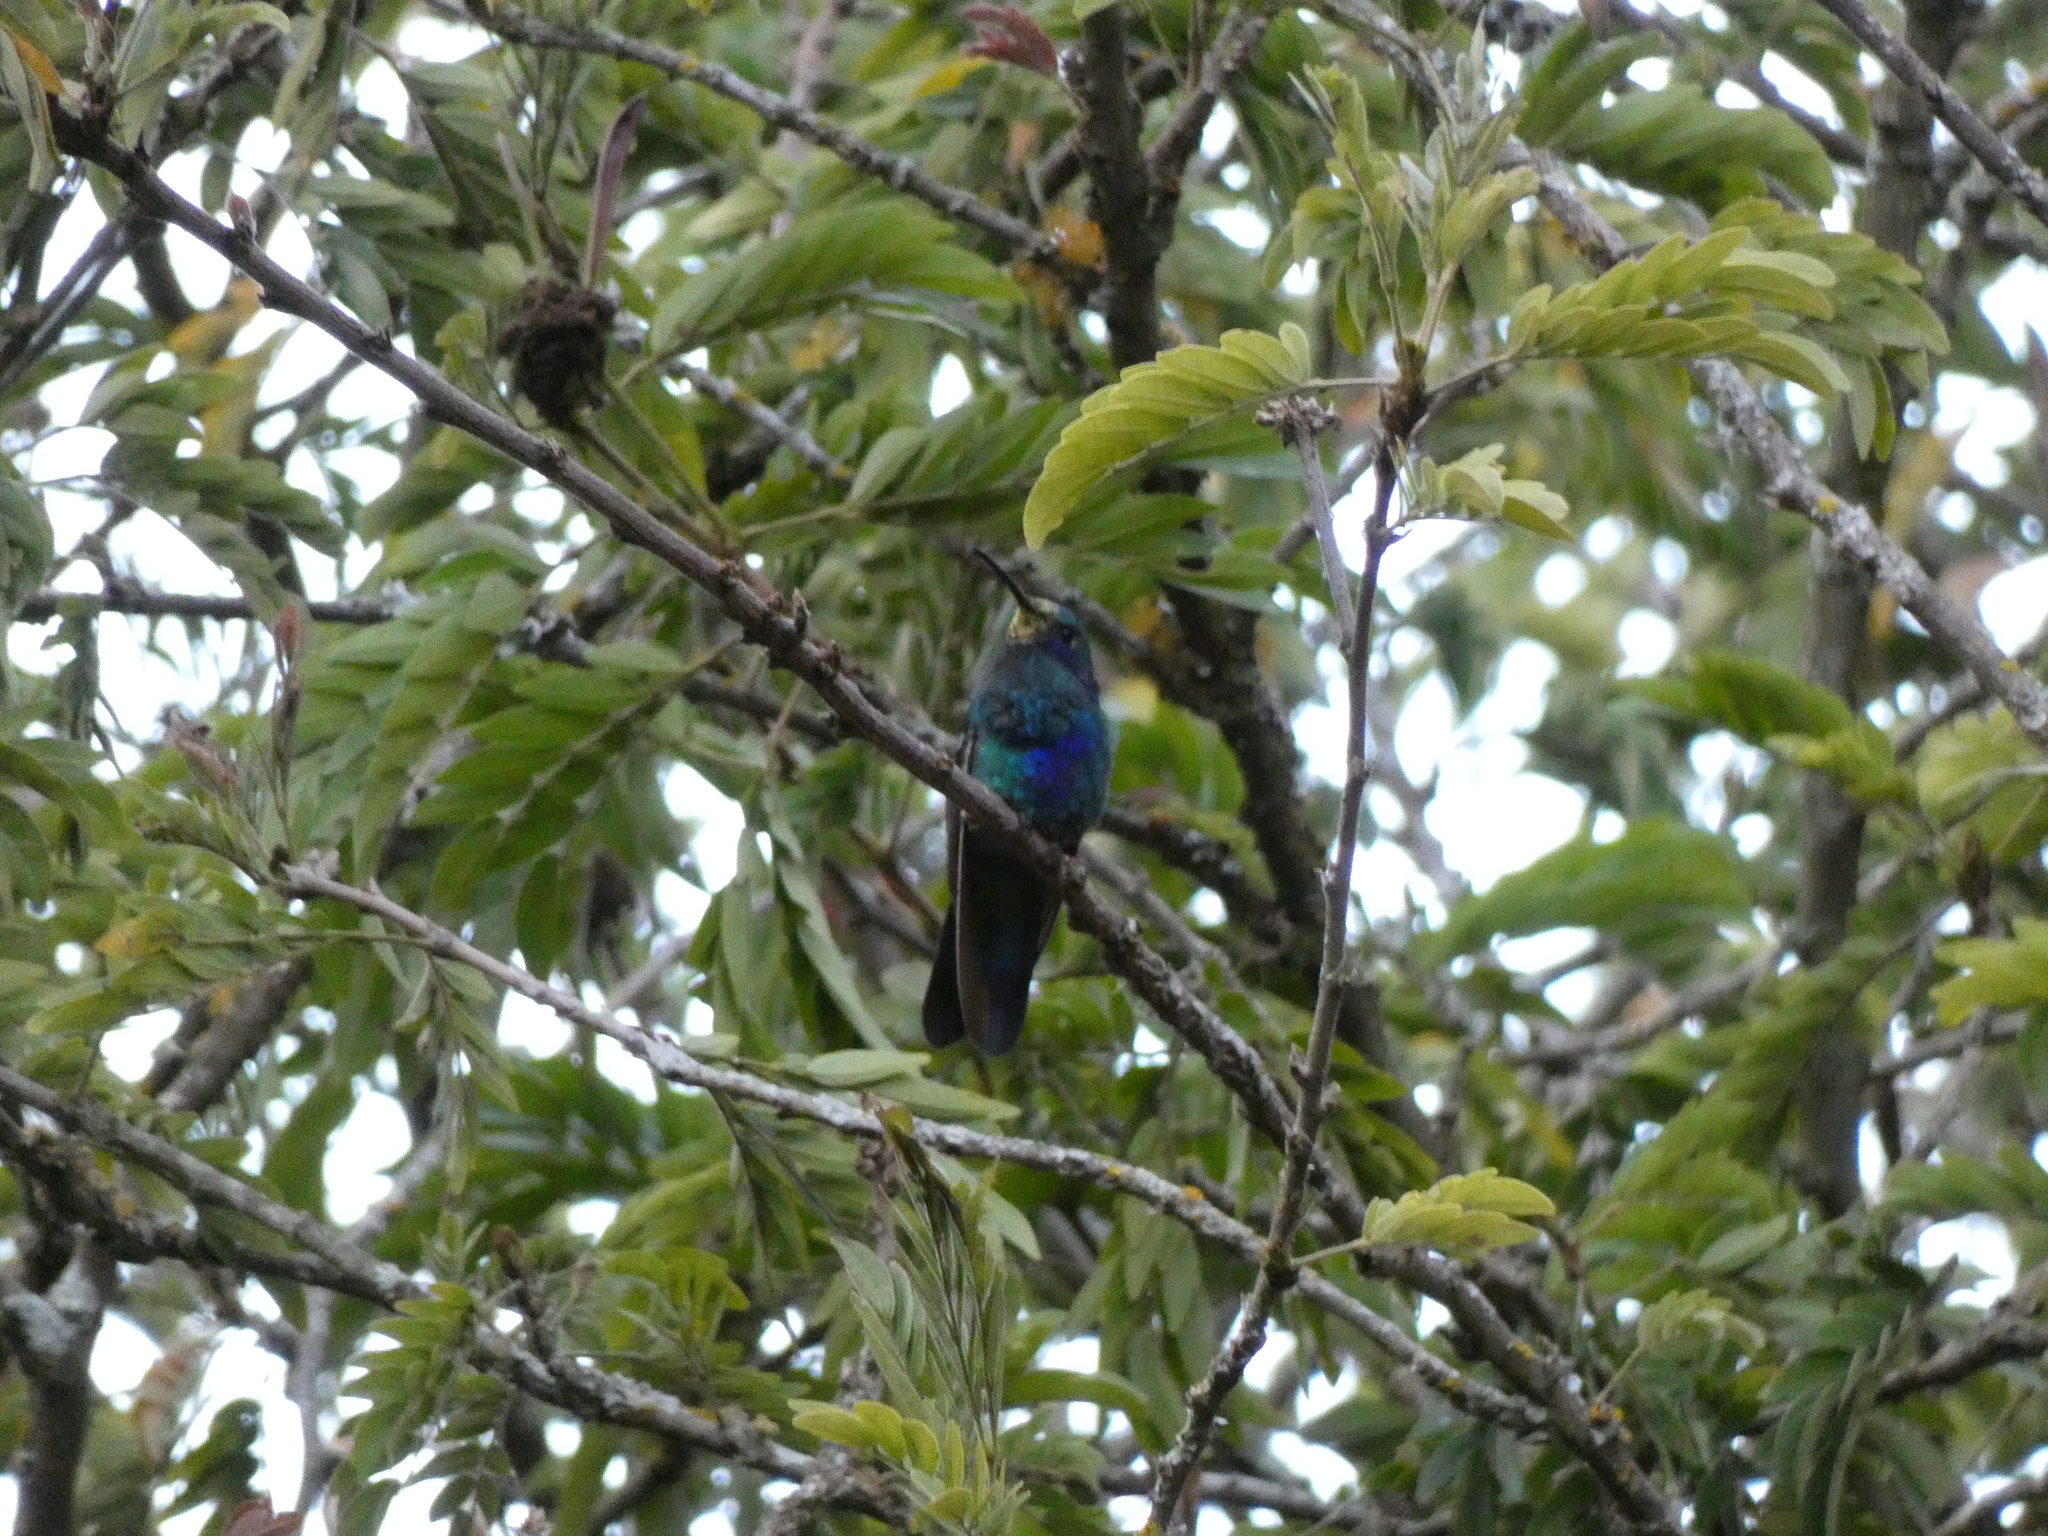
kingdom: Animalia
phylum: Chordata
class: Aves
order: Apodiformes
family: Trochilidae
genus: Colibri
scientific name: Colibri coruscans
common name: Sparkling violetear
